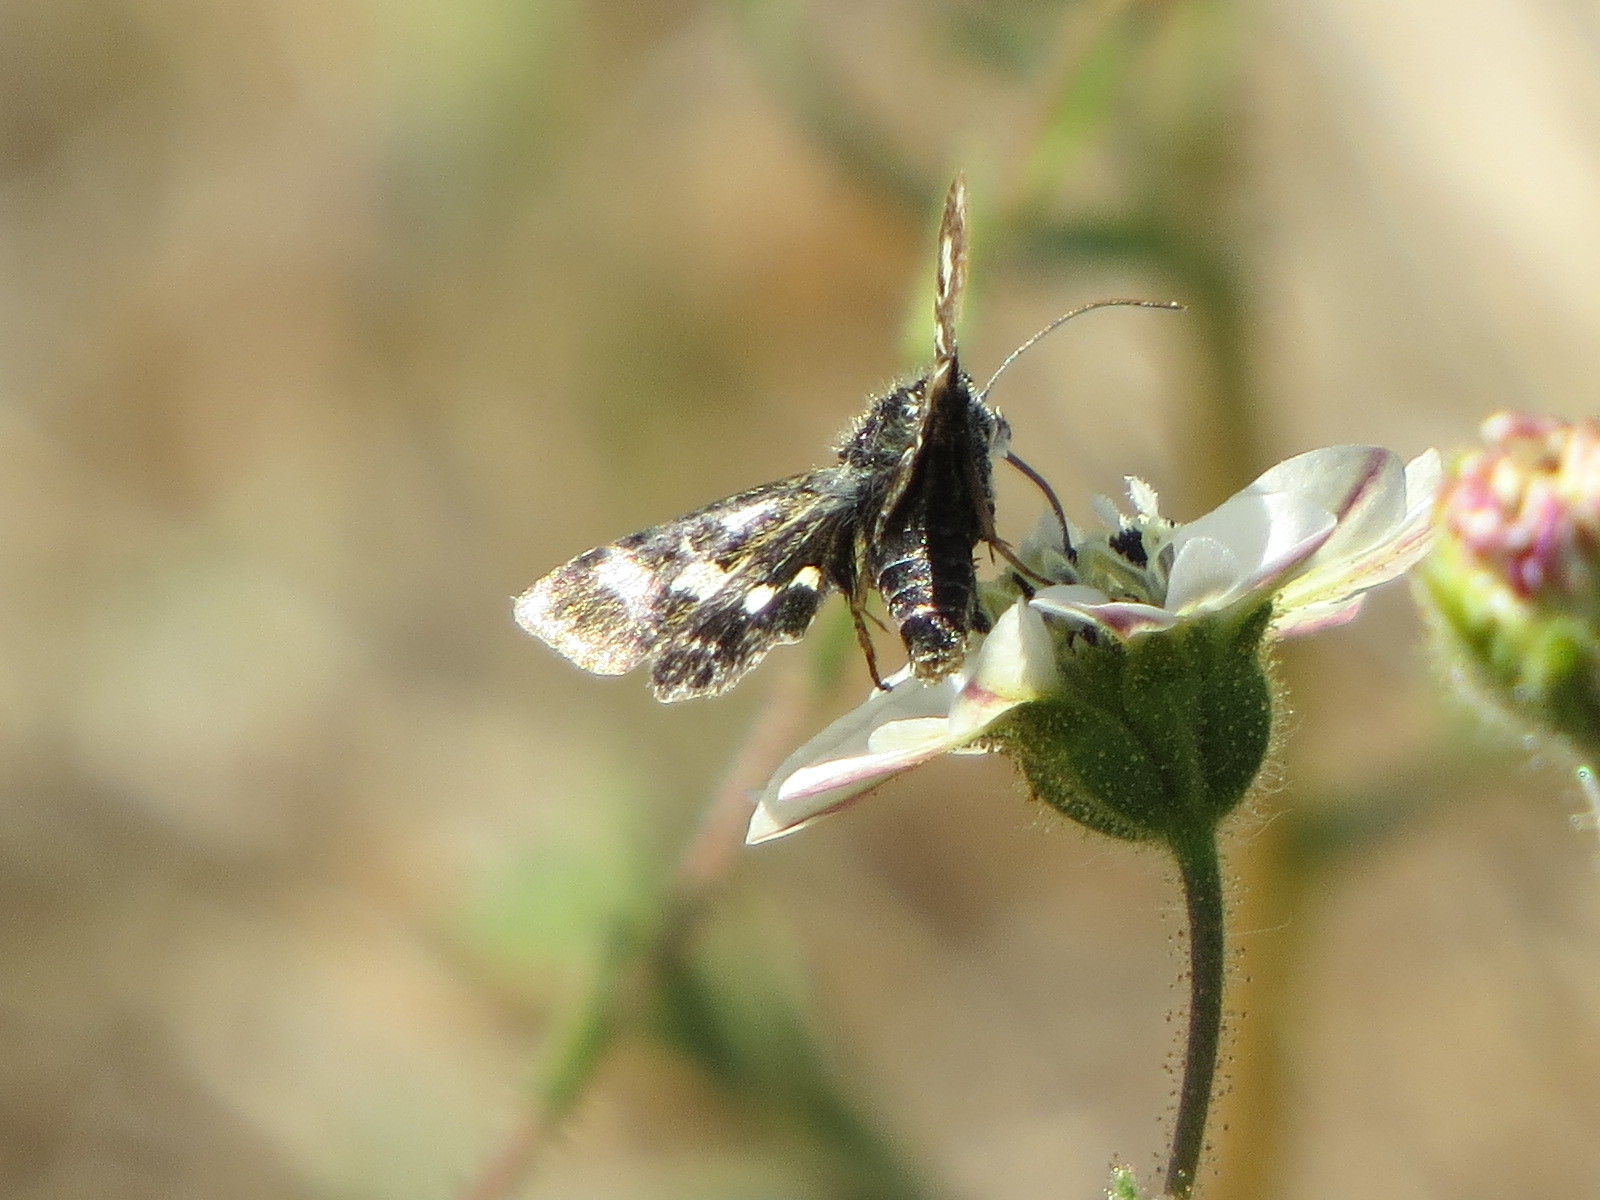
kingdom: Animalia
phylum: Arthropoda
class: Insecta
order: Lepidoptera
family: Noctuidae
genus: Heliothodes
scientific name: Heliothodes diminutiva
